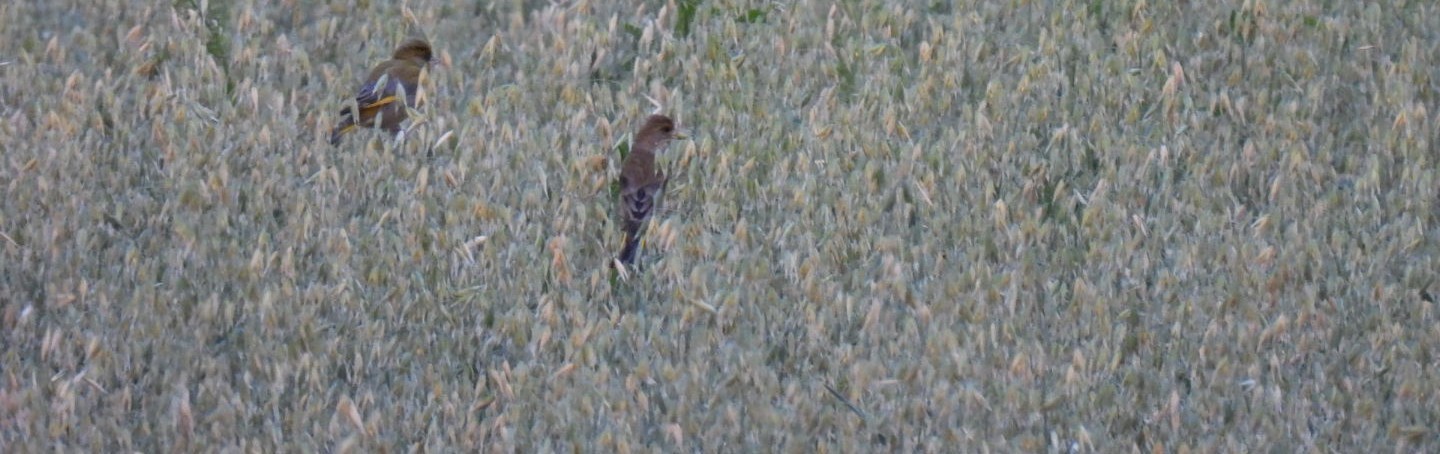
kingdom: Plantae
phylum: Tracheophyta
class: Liliopsida
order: Poales
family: Poaceae
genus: Chloris
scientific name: Chloris chloris
